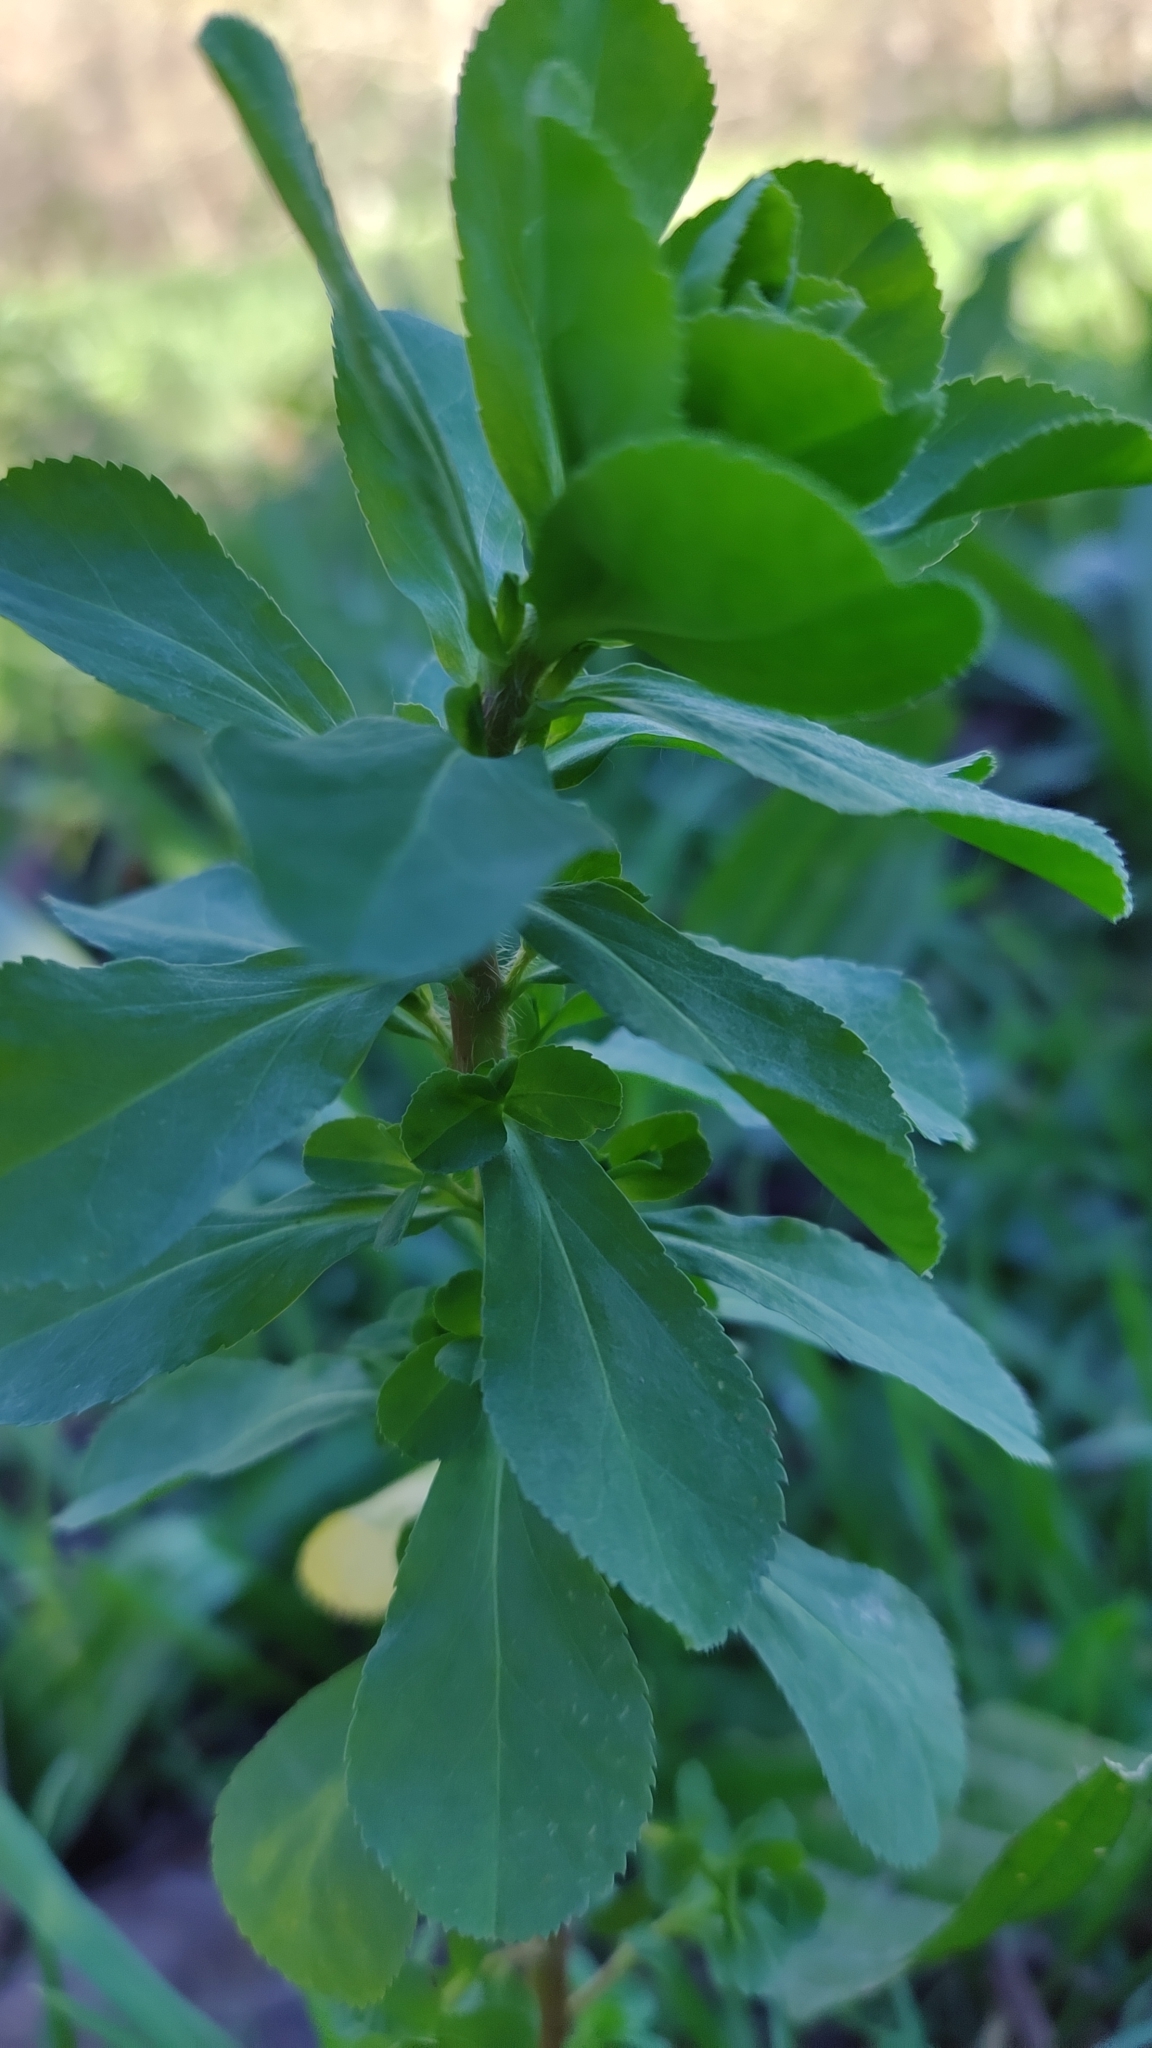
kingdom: Plantae
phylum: Tracheophyta
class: Magnoliopsida
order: Malpighiales
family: Euphorbiaceae
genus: Euphorbia
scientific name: Euphorbia helioscopia
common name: Sun spurge
